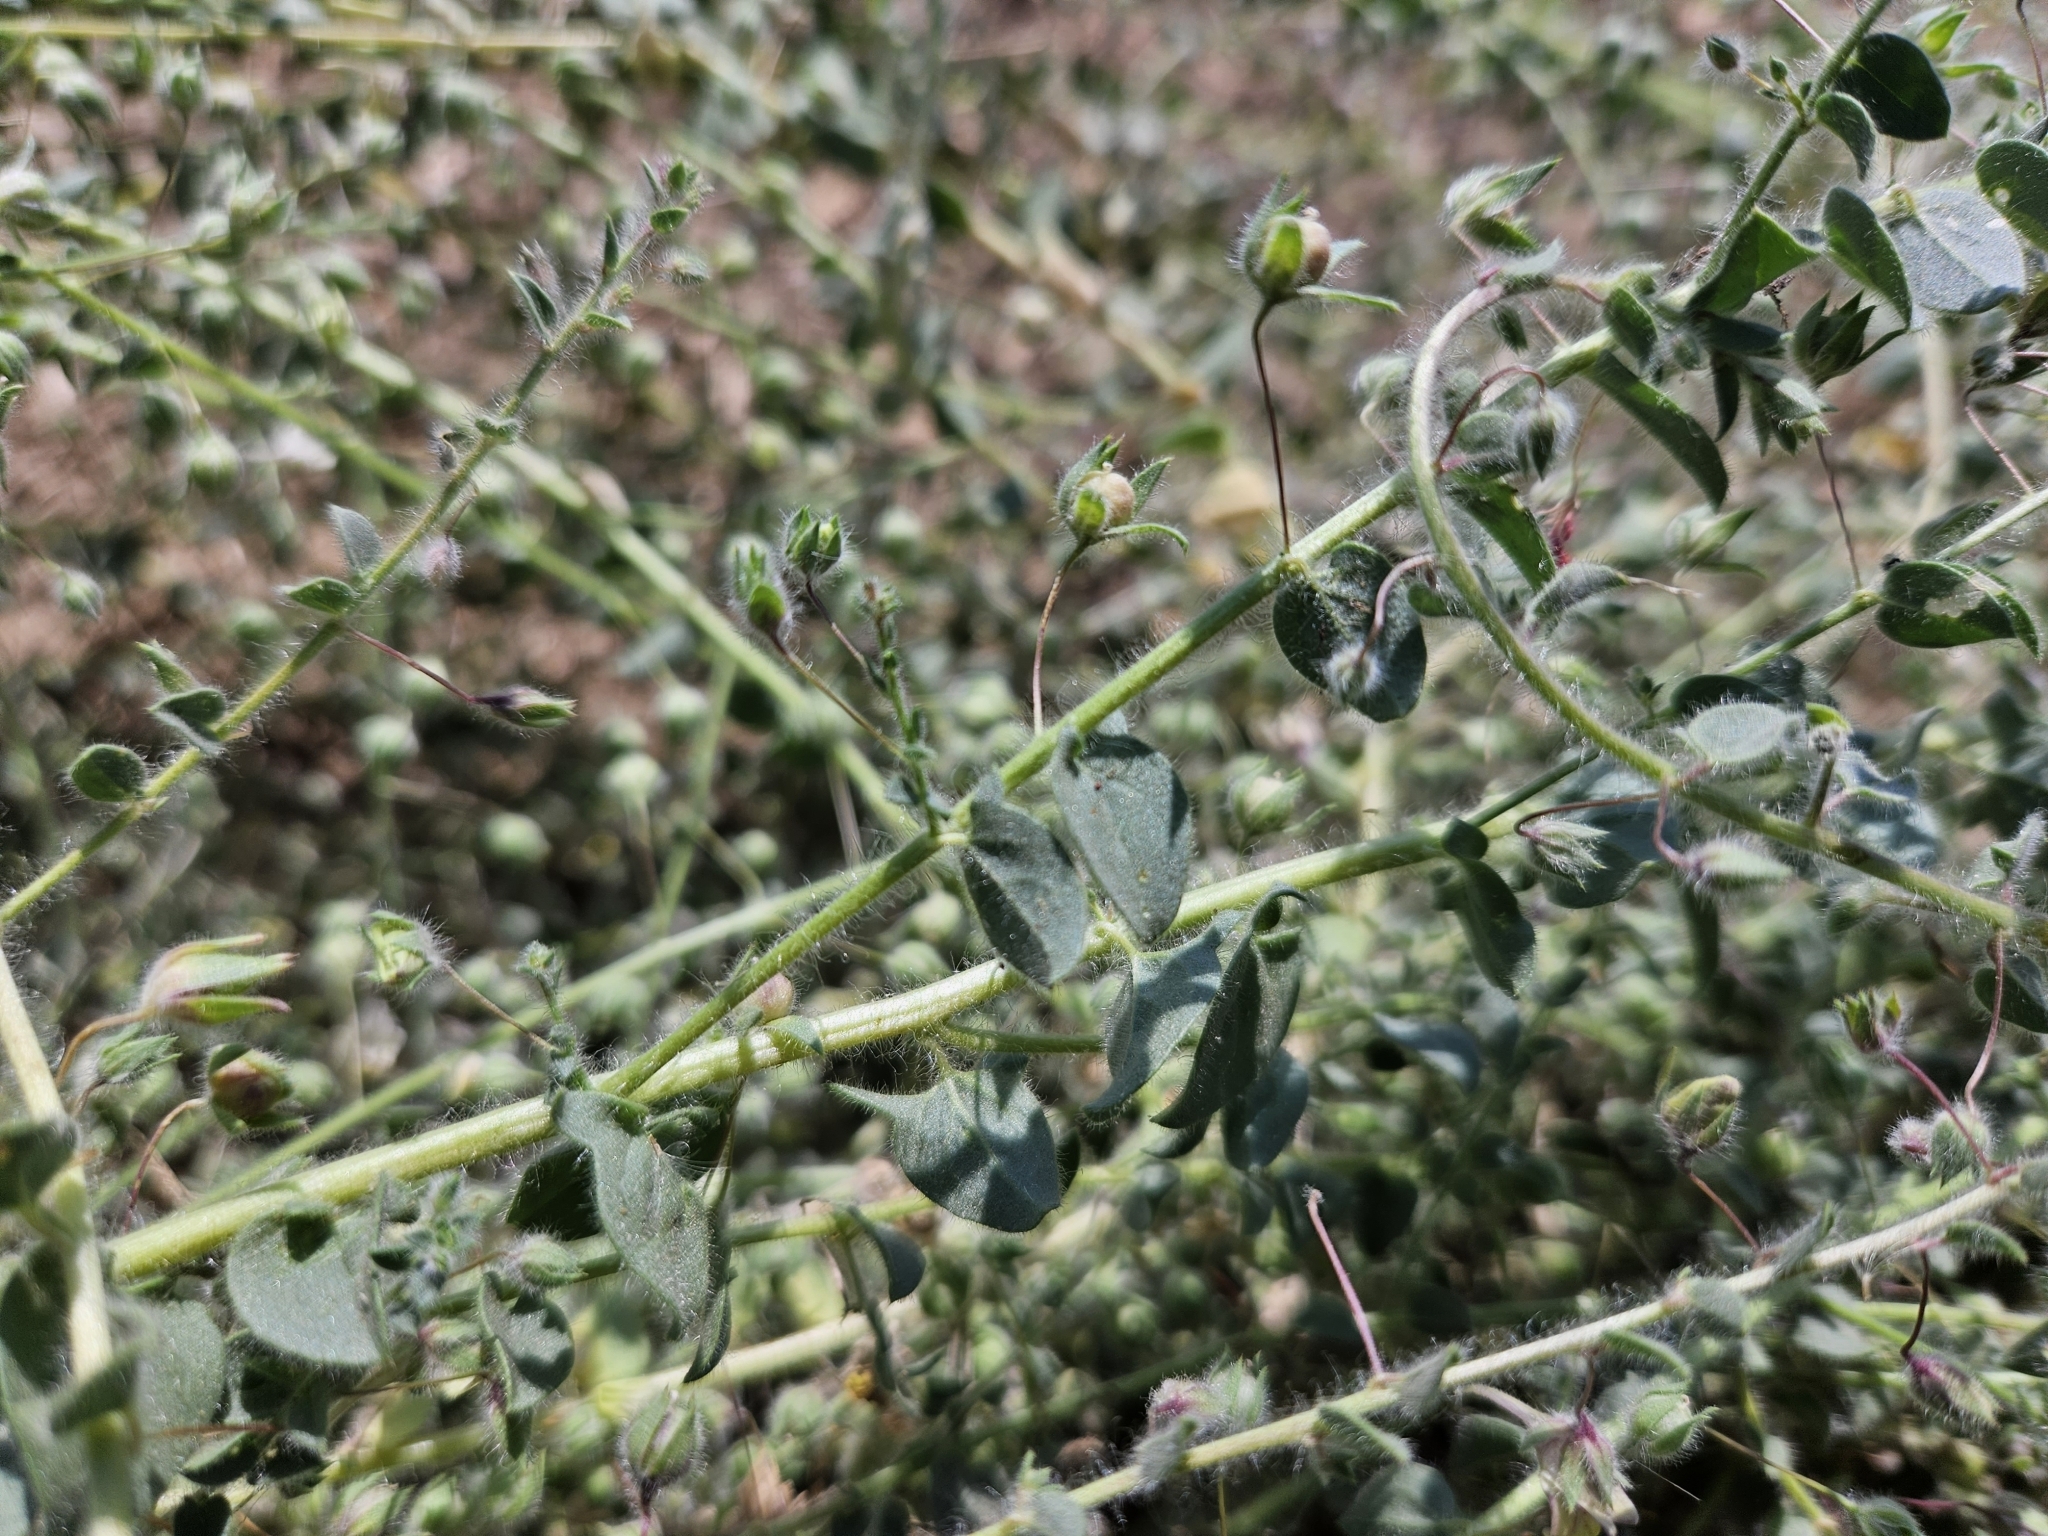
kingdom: Plantae
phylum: Tracheophyta
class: Magnoliopsida
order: Lamiales
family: Plantaginaceae
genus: Kickxia
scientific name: Kickxia elatine
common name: Sharp-leaved fluellen
